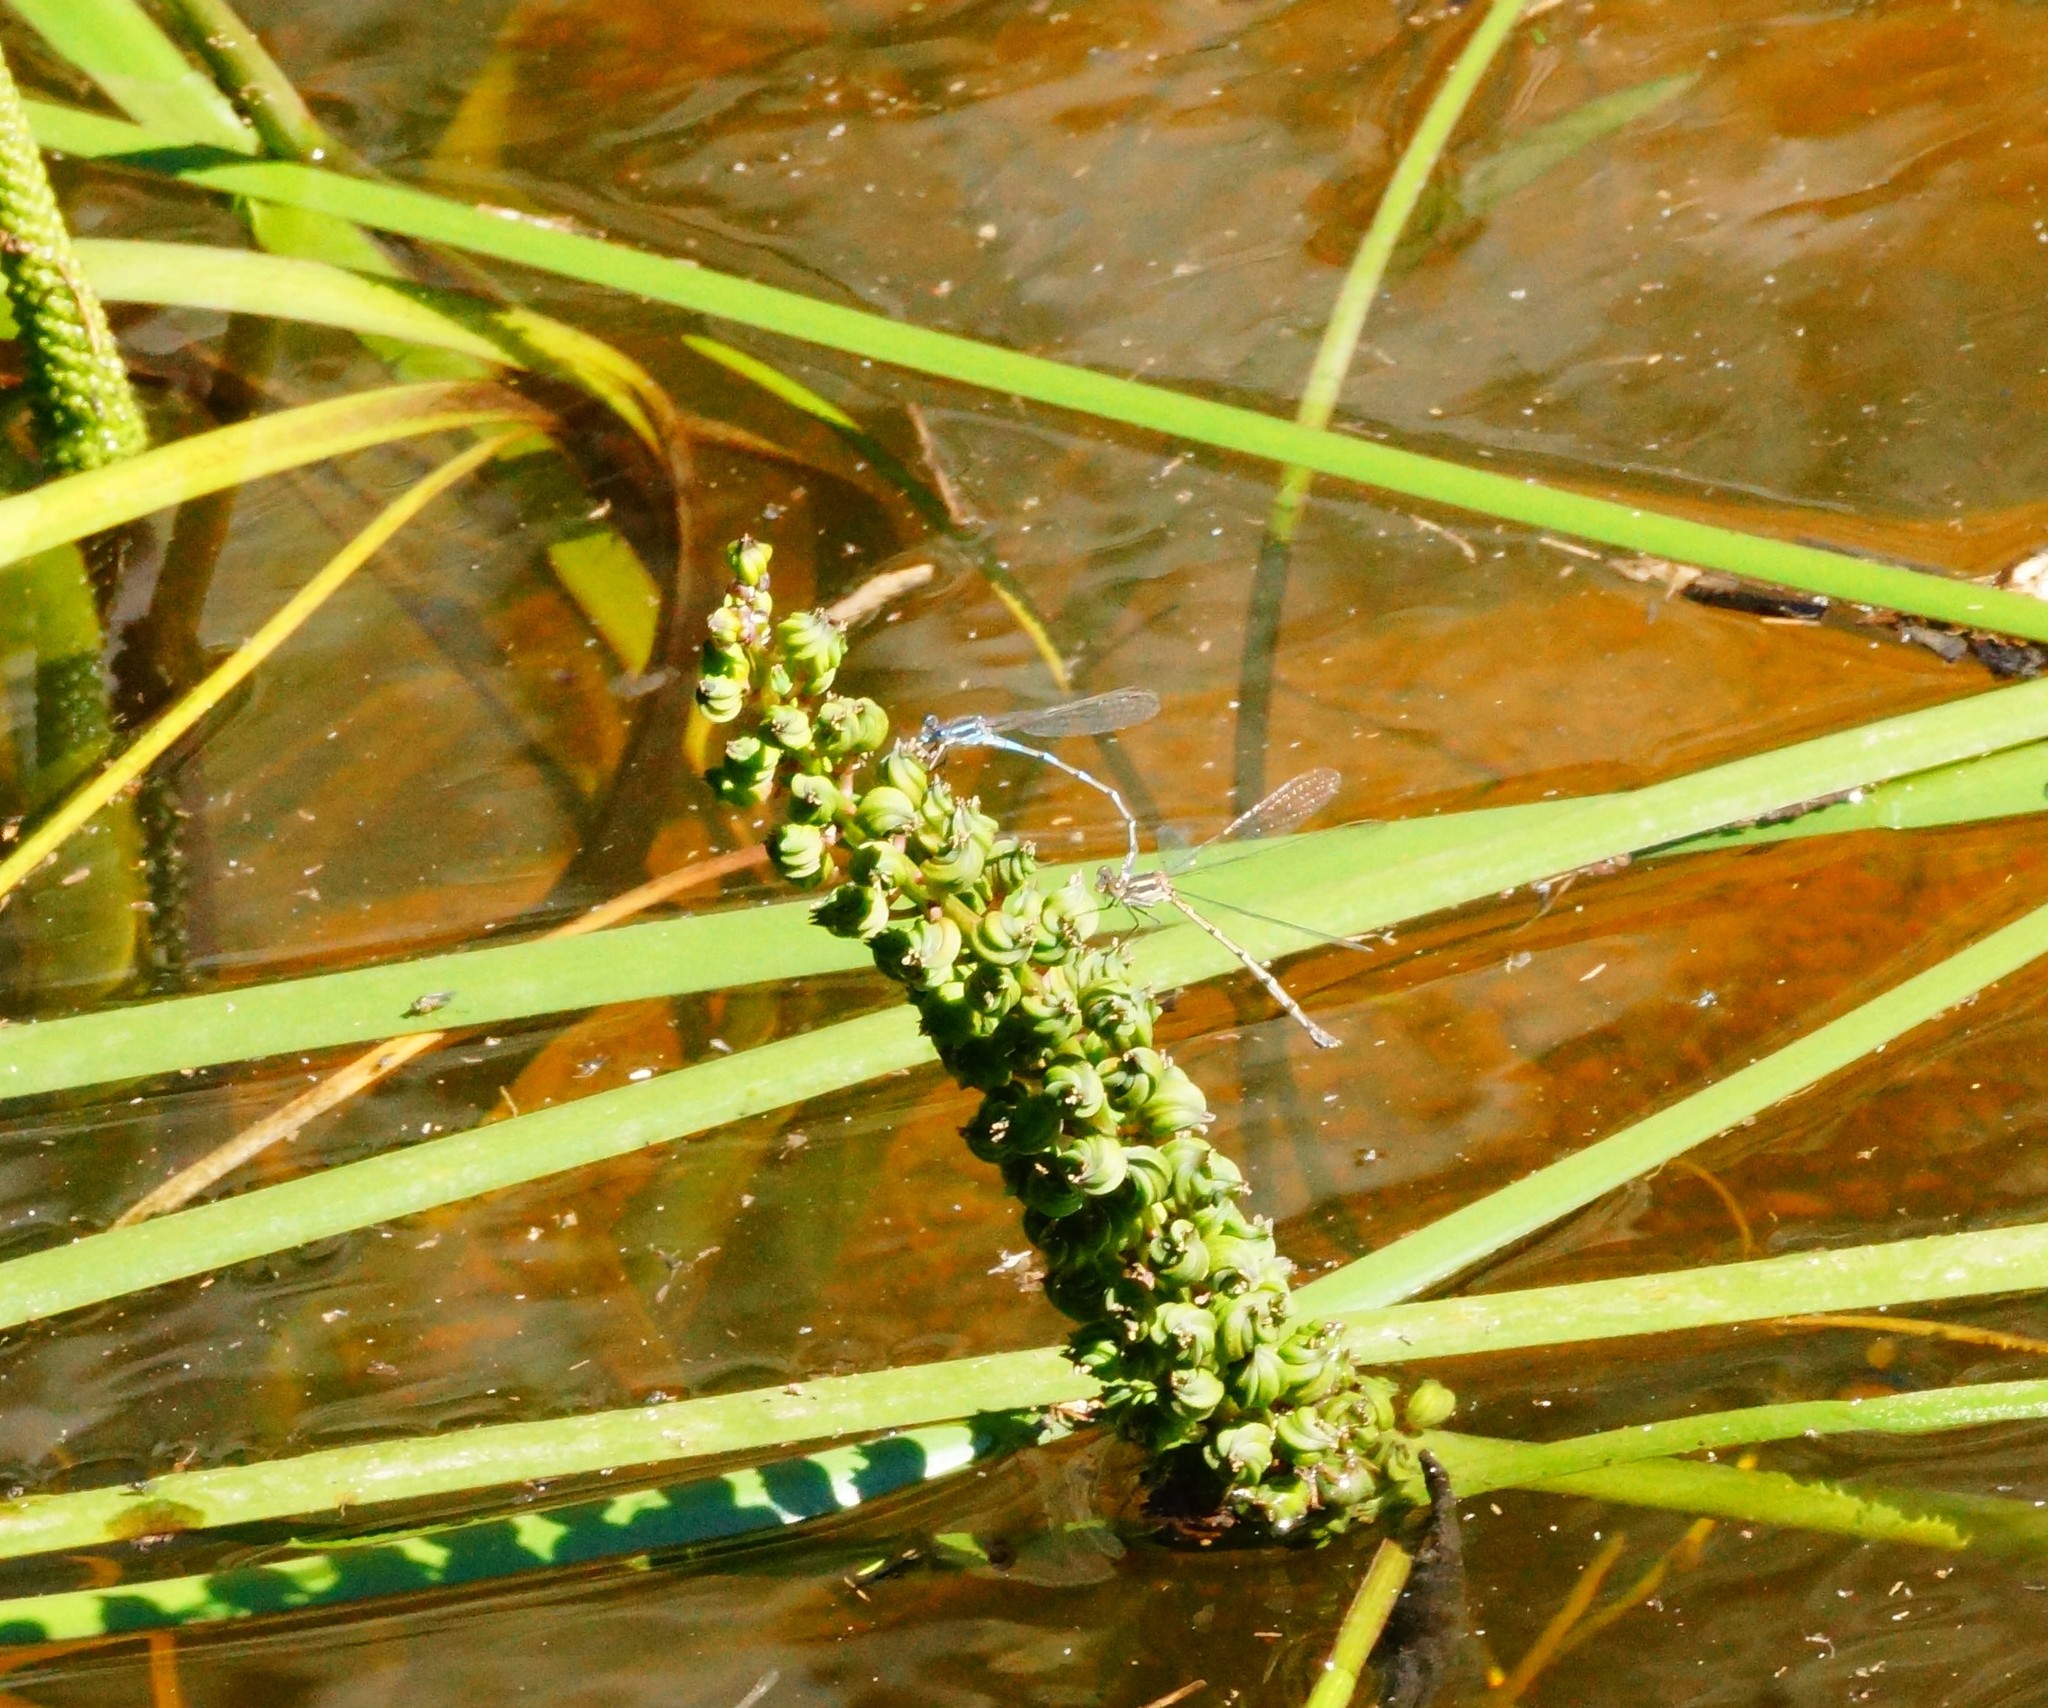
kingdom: Animalia
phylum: Arthropoda
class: Insecta
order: Odonata
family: Lestidae
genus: Austrolestes
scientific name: Austrolestes leda
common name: Wandering ringtail
